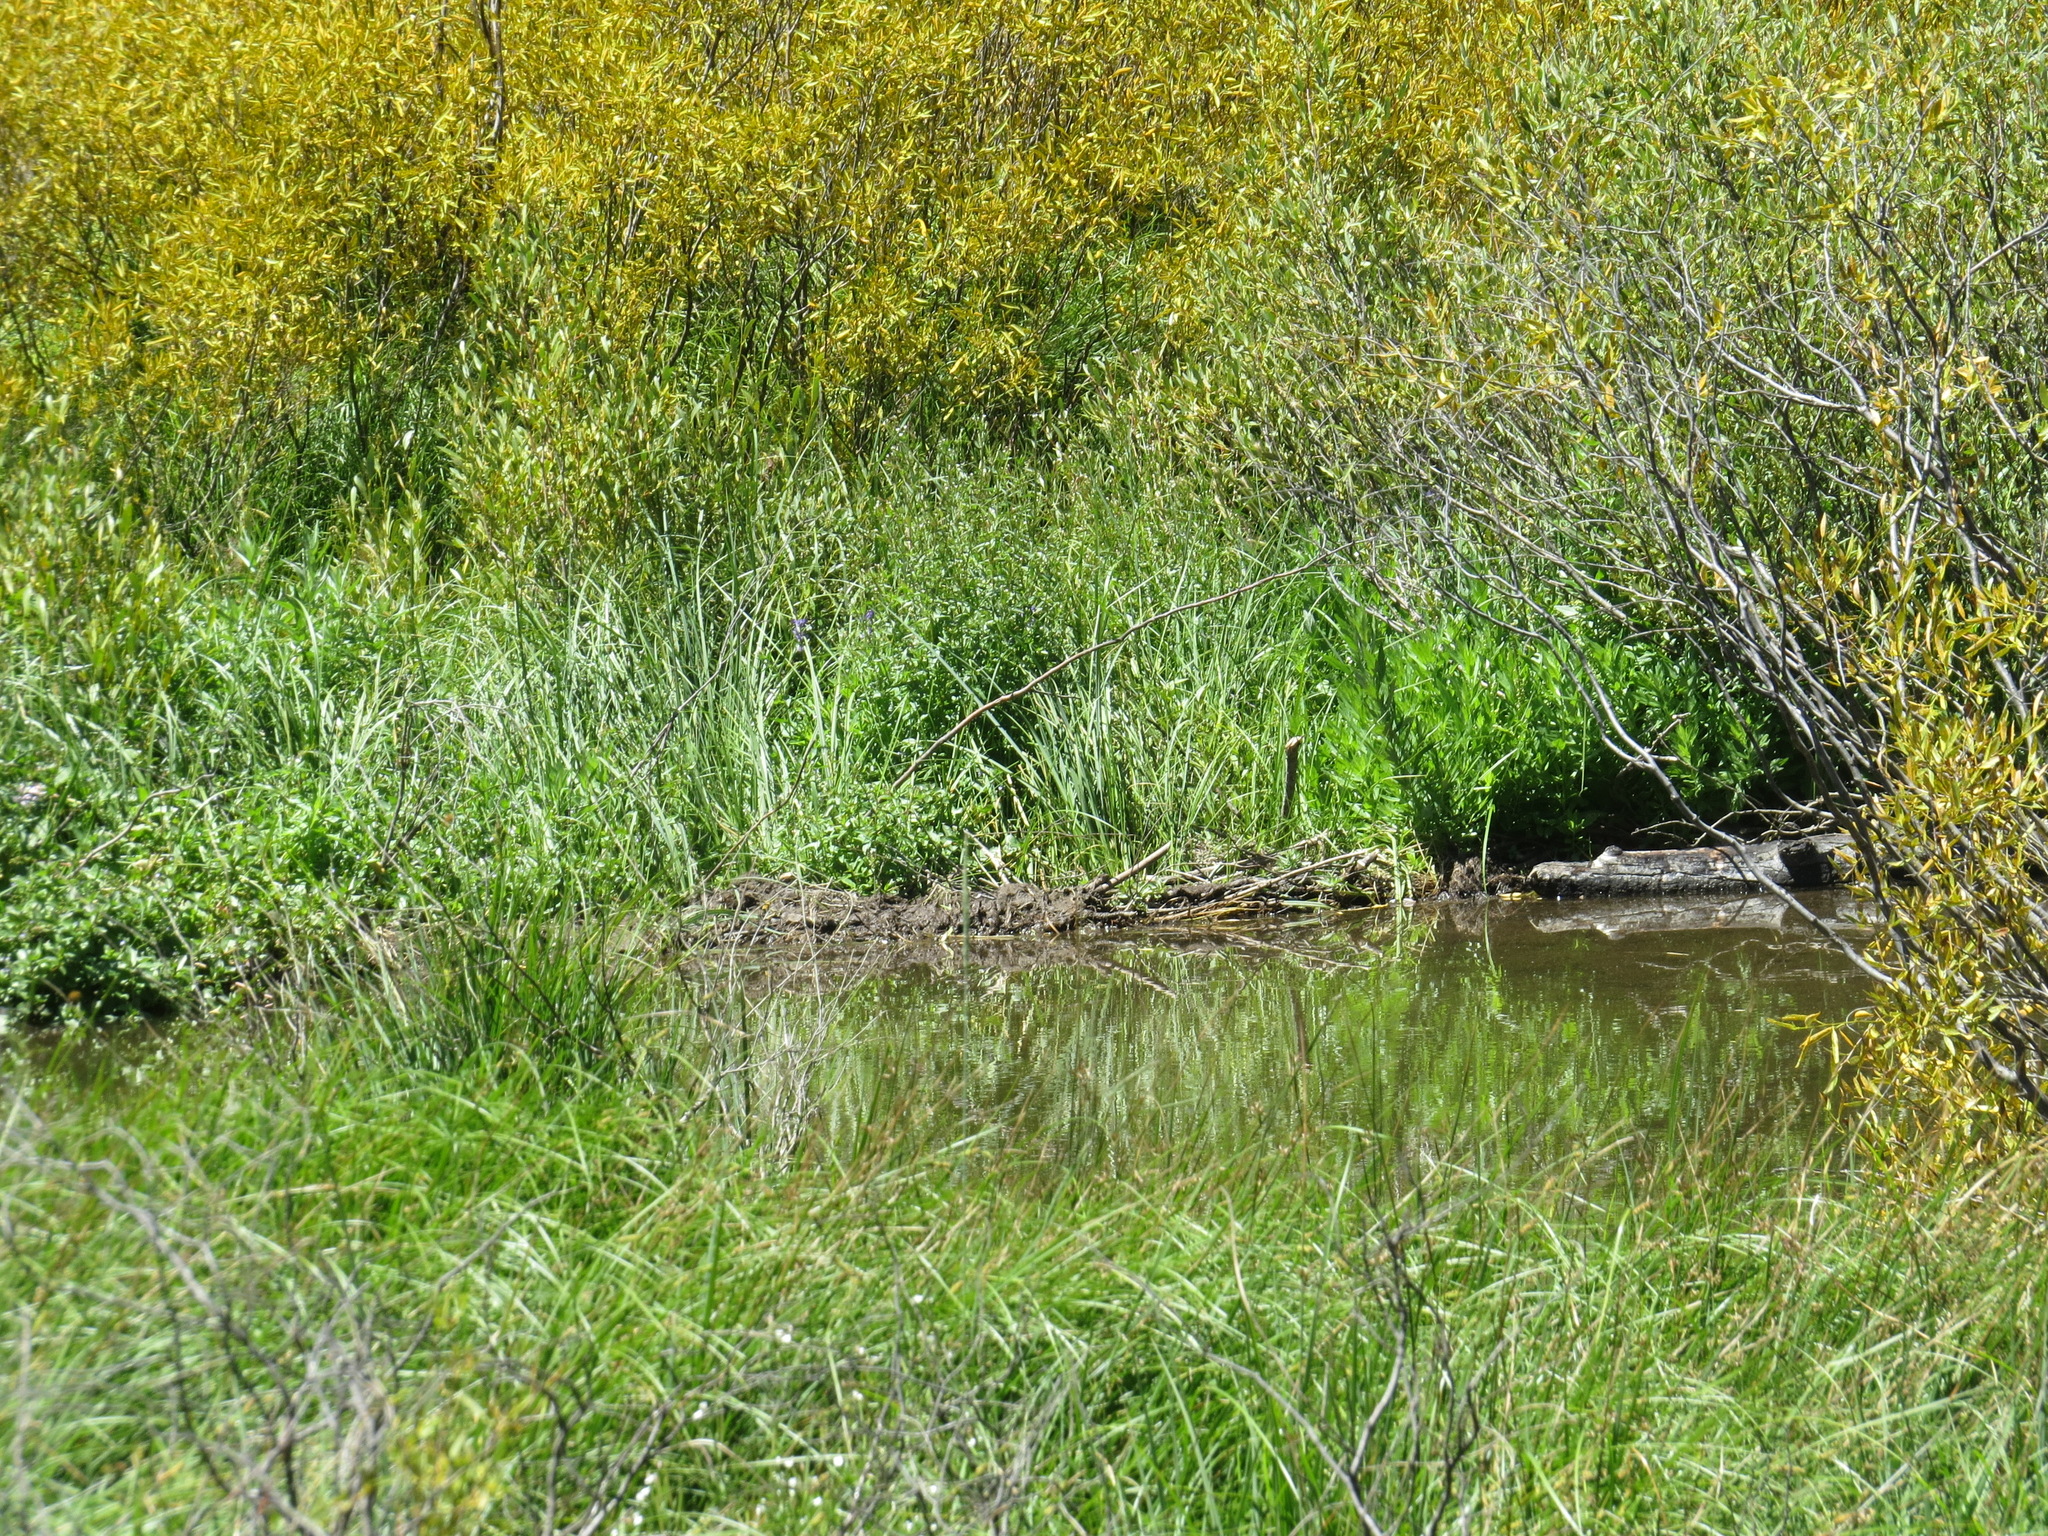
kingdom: Animalia
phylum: Chordata
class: Mammalia
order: Rodentia
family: Castoridae
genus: Castor
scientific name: Castor canadensis
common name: American beaver
